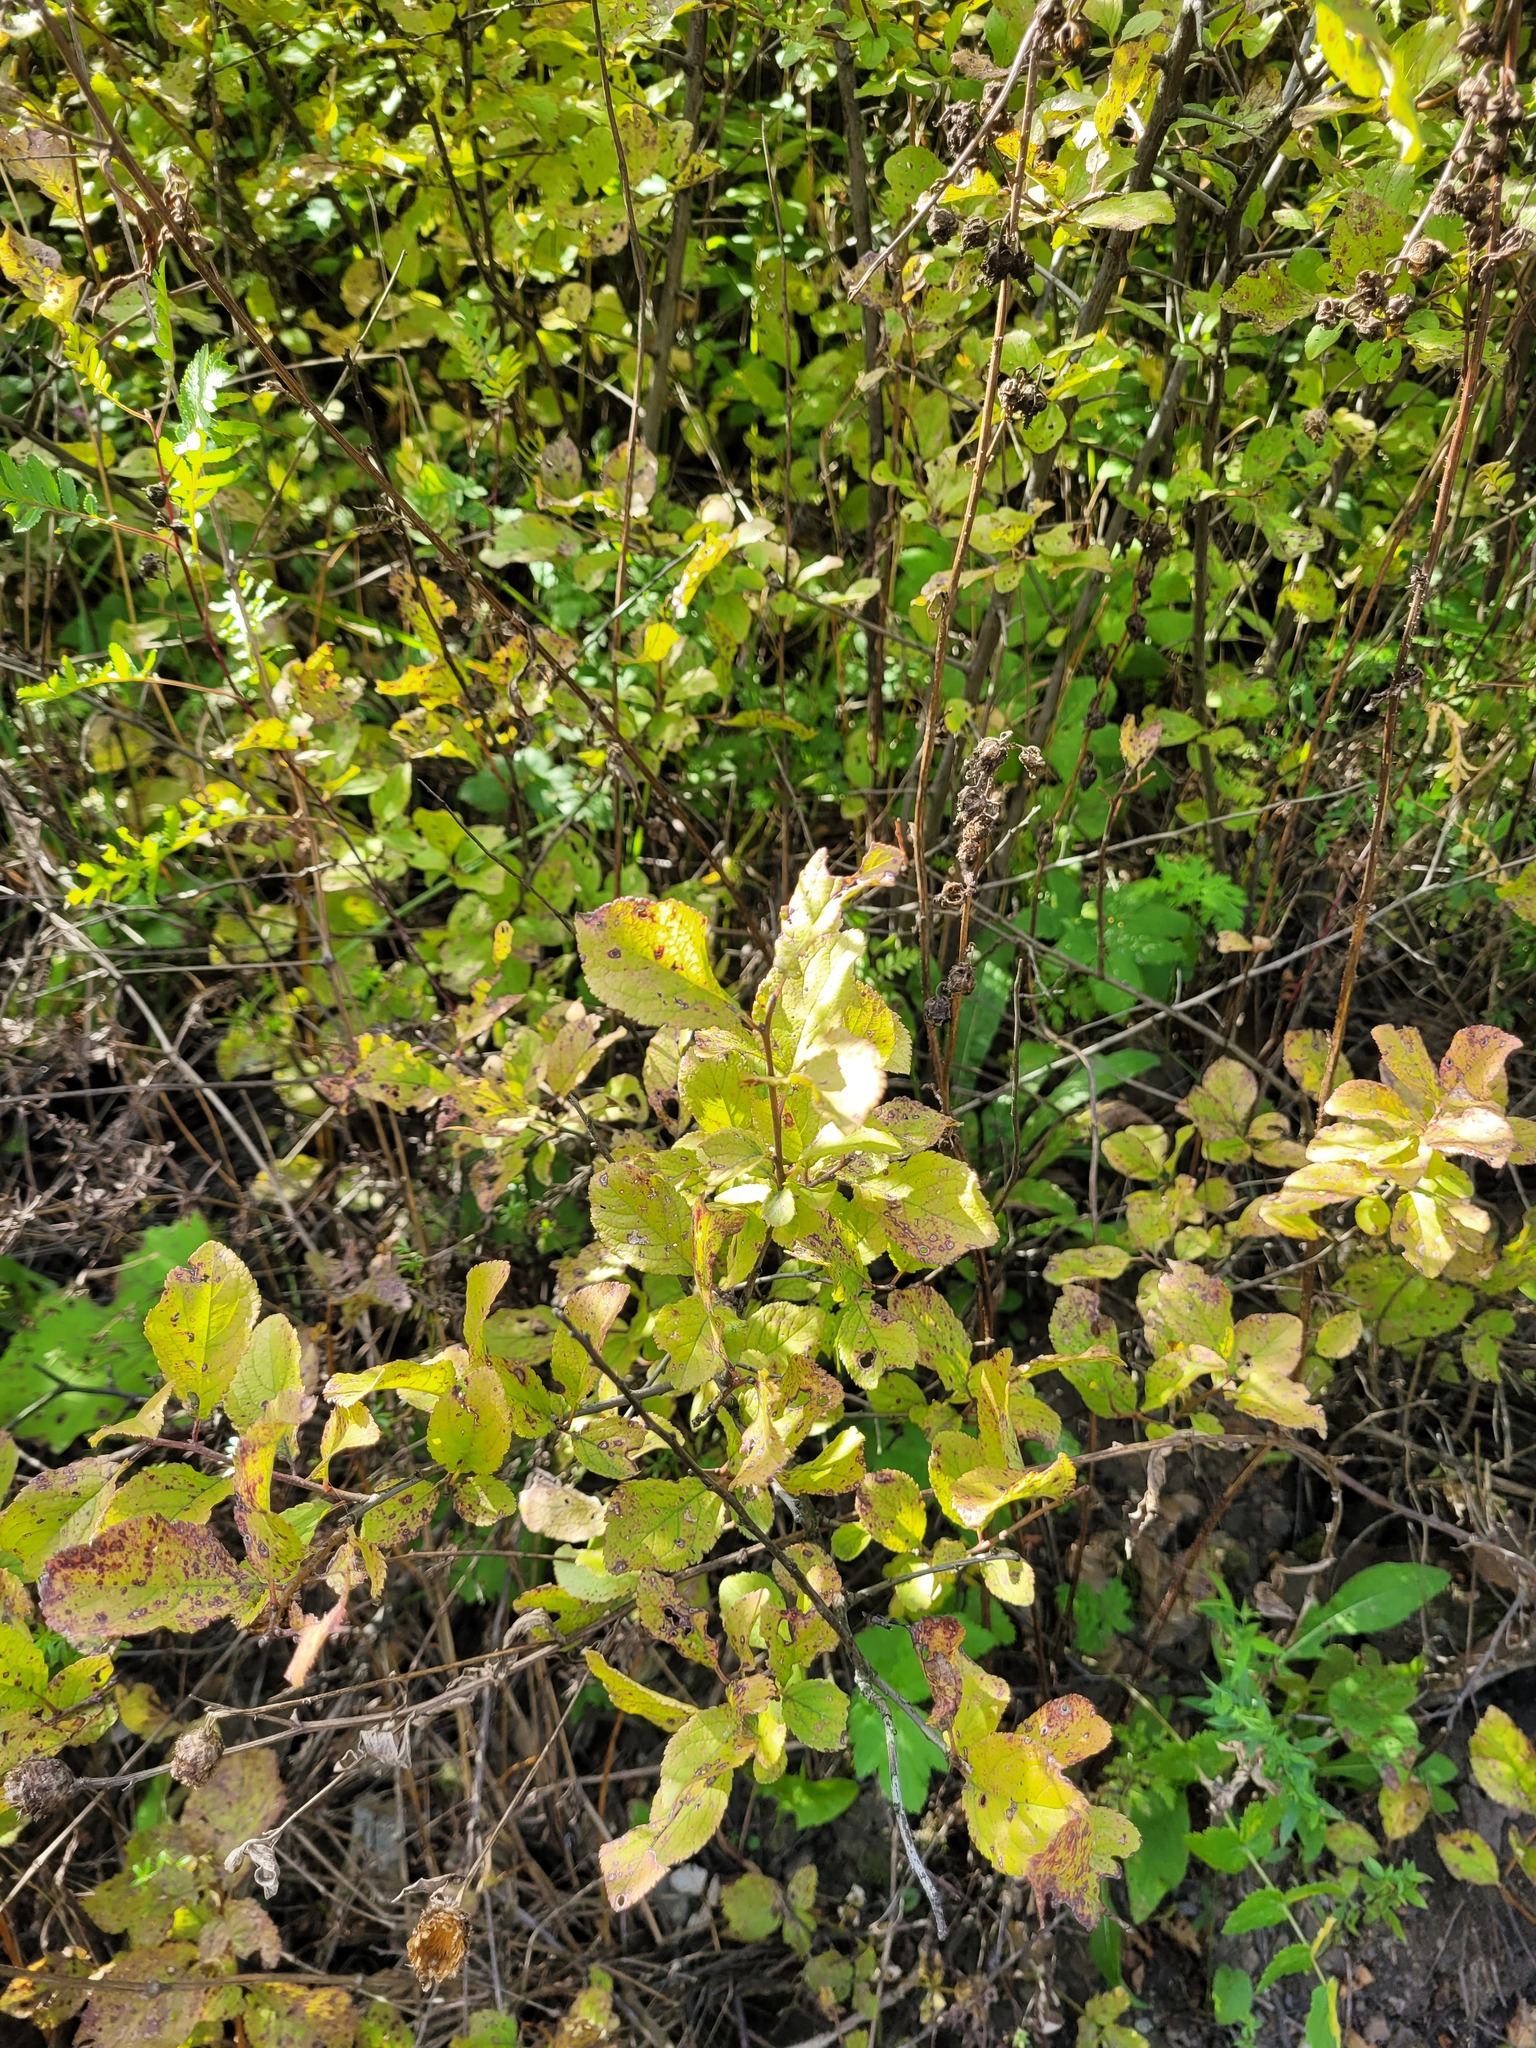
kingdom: Plantae
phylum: Tracheophyta
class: Magnoliopsida
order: Rosales
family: Rosaceae
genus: Prunus
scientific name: Prunus spinosa
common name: Blackthorn
